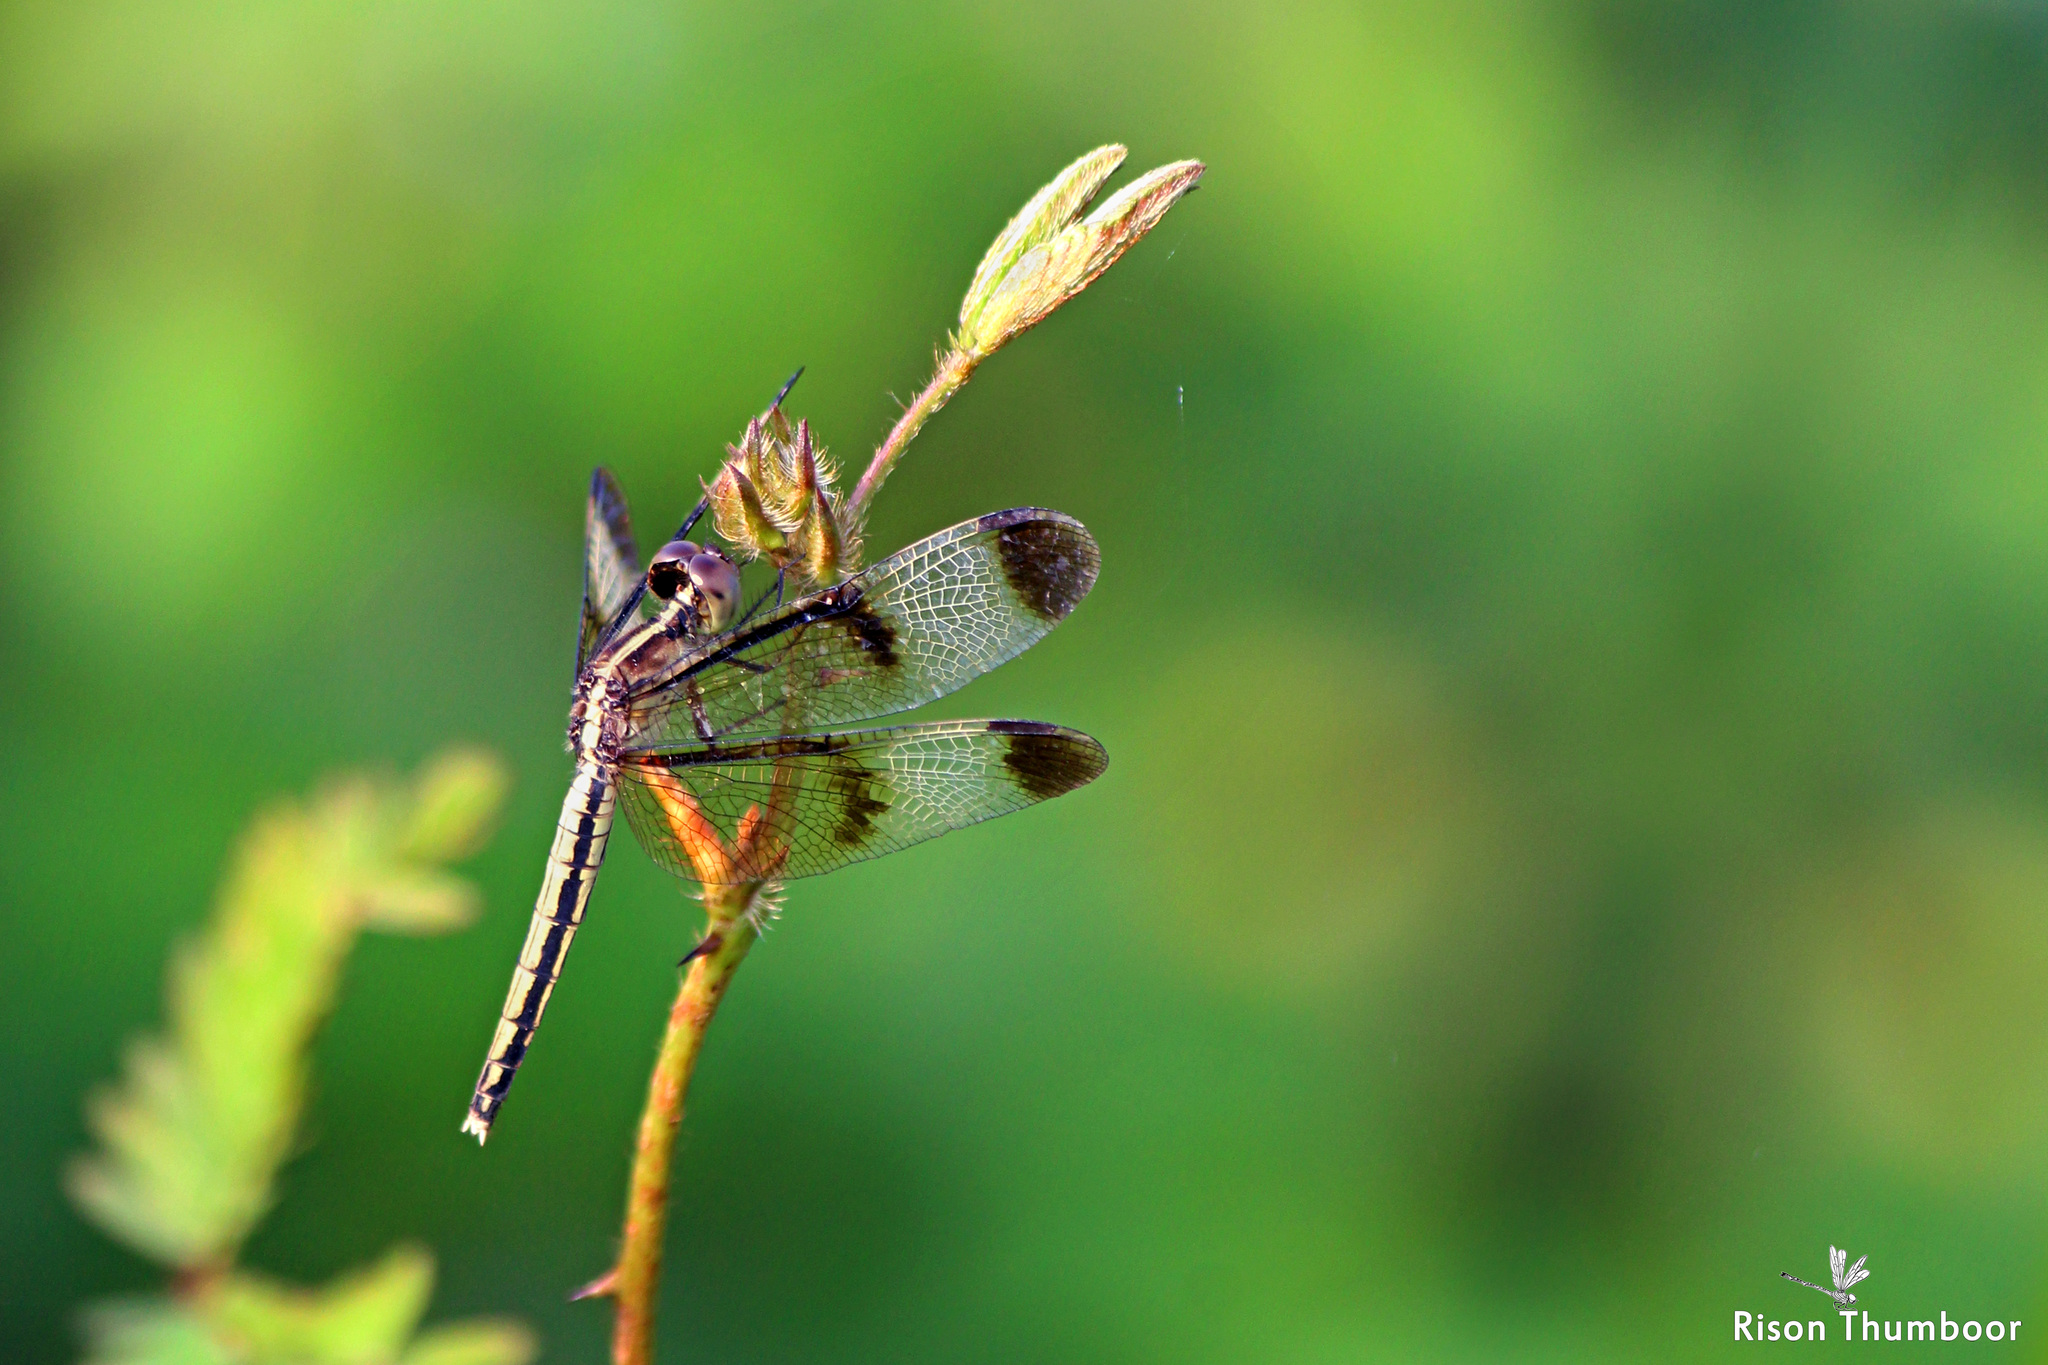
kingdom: Animalia
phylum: Arthropoda
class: Insecta
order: Odonata
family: Libellulidae
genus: Neurothemis
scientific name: Neurothemis tullia
